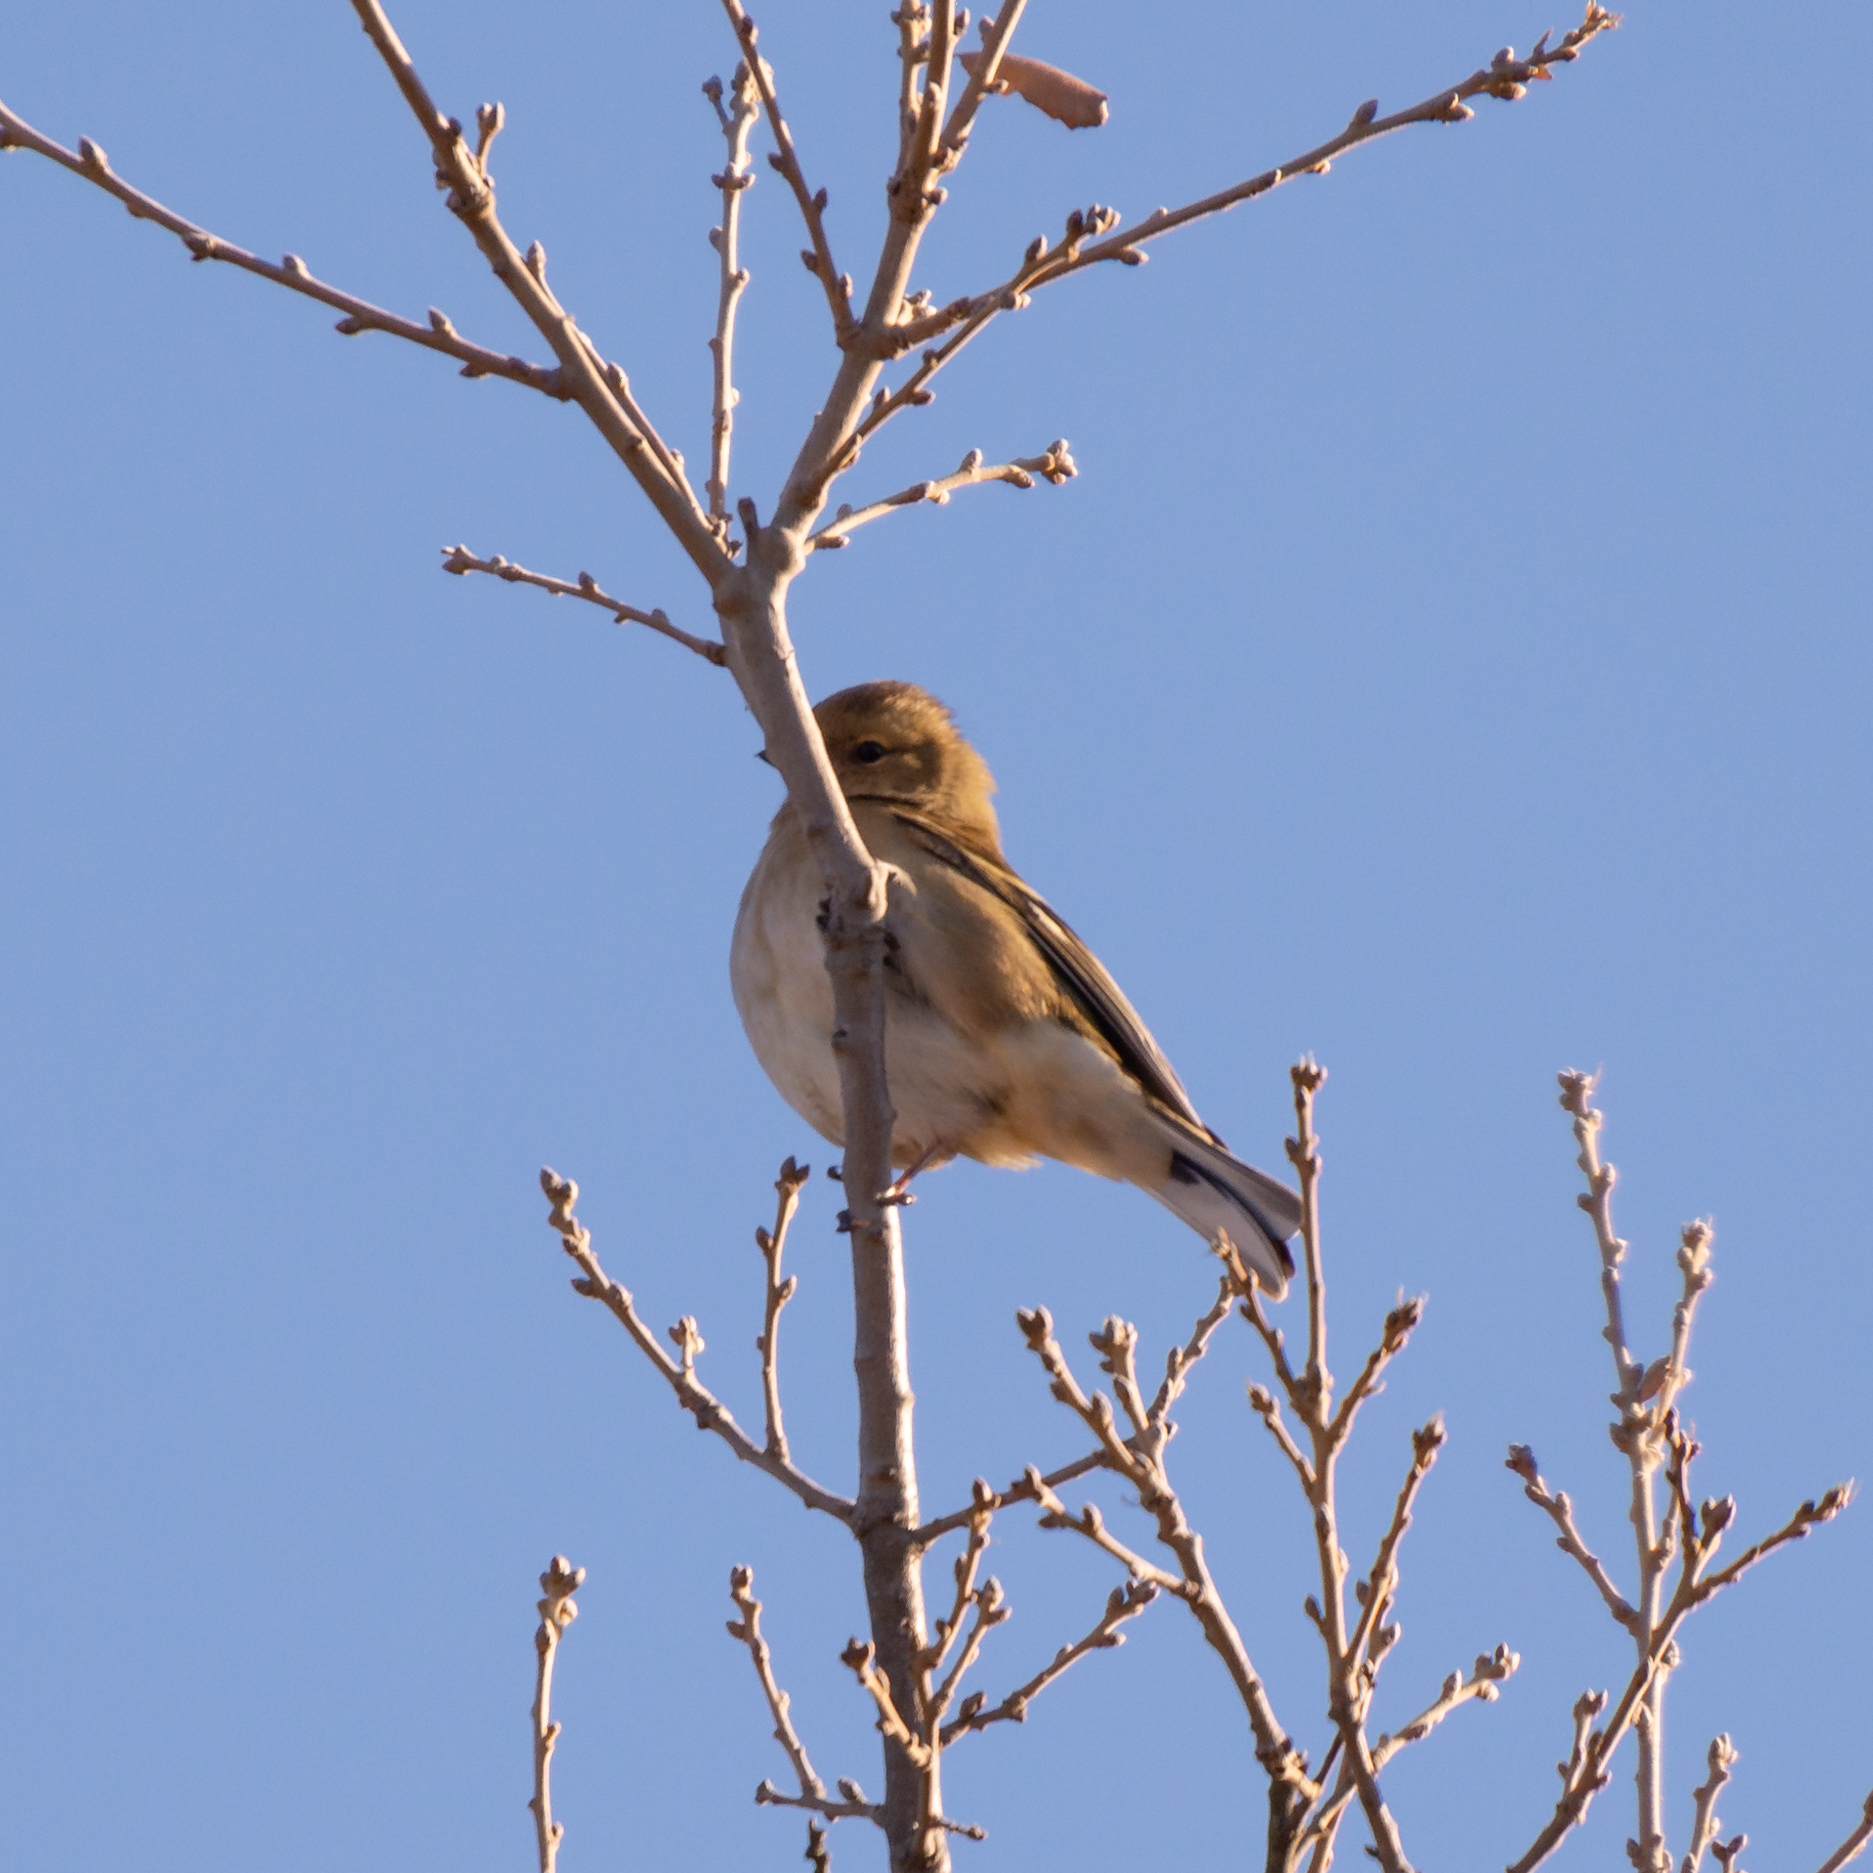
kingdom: Animalia
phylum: Chordata
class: Aves
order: Passeriformes
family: Fringillidae
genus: Fringilla
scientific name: Fringilla coelebs
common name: Common chaffinch
